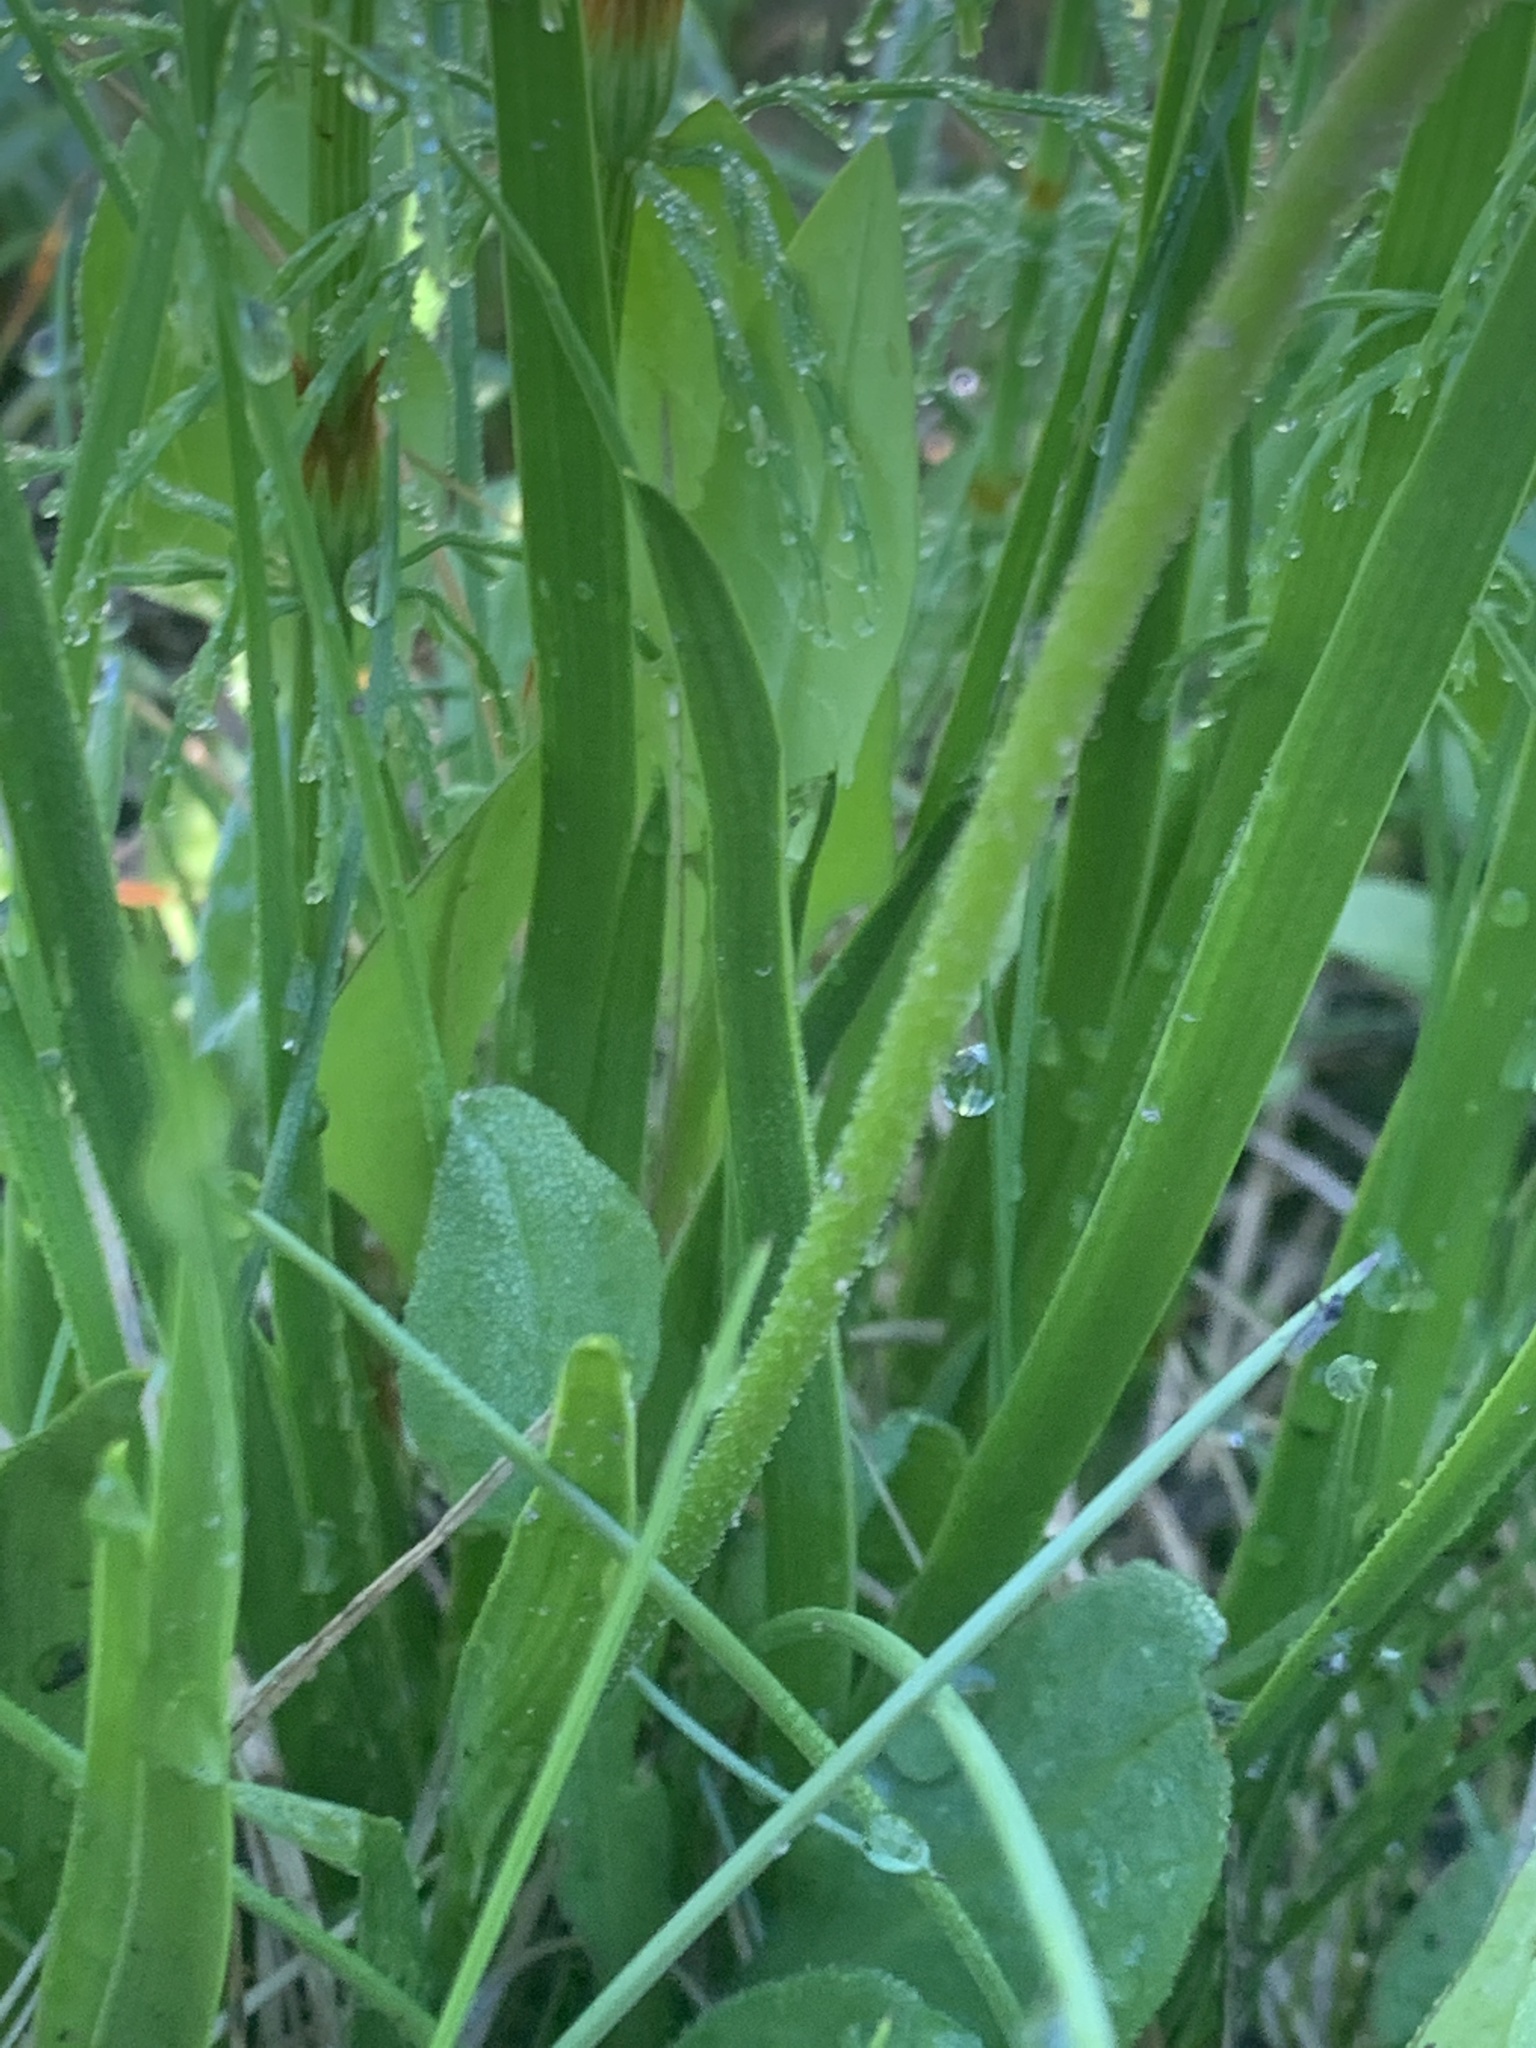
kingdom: Plantae
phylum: Tracheophyta
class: Liliopsida
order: Alismatales
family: Tofieldiaceae
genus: Triantha
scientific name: Triantha glutinosa
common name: Glutinous tofieldia
